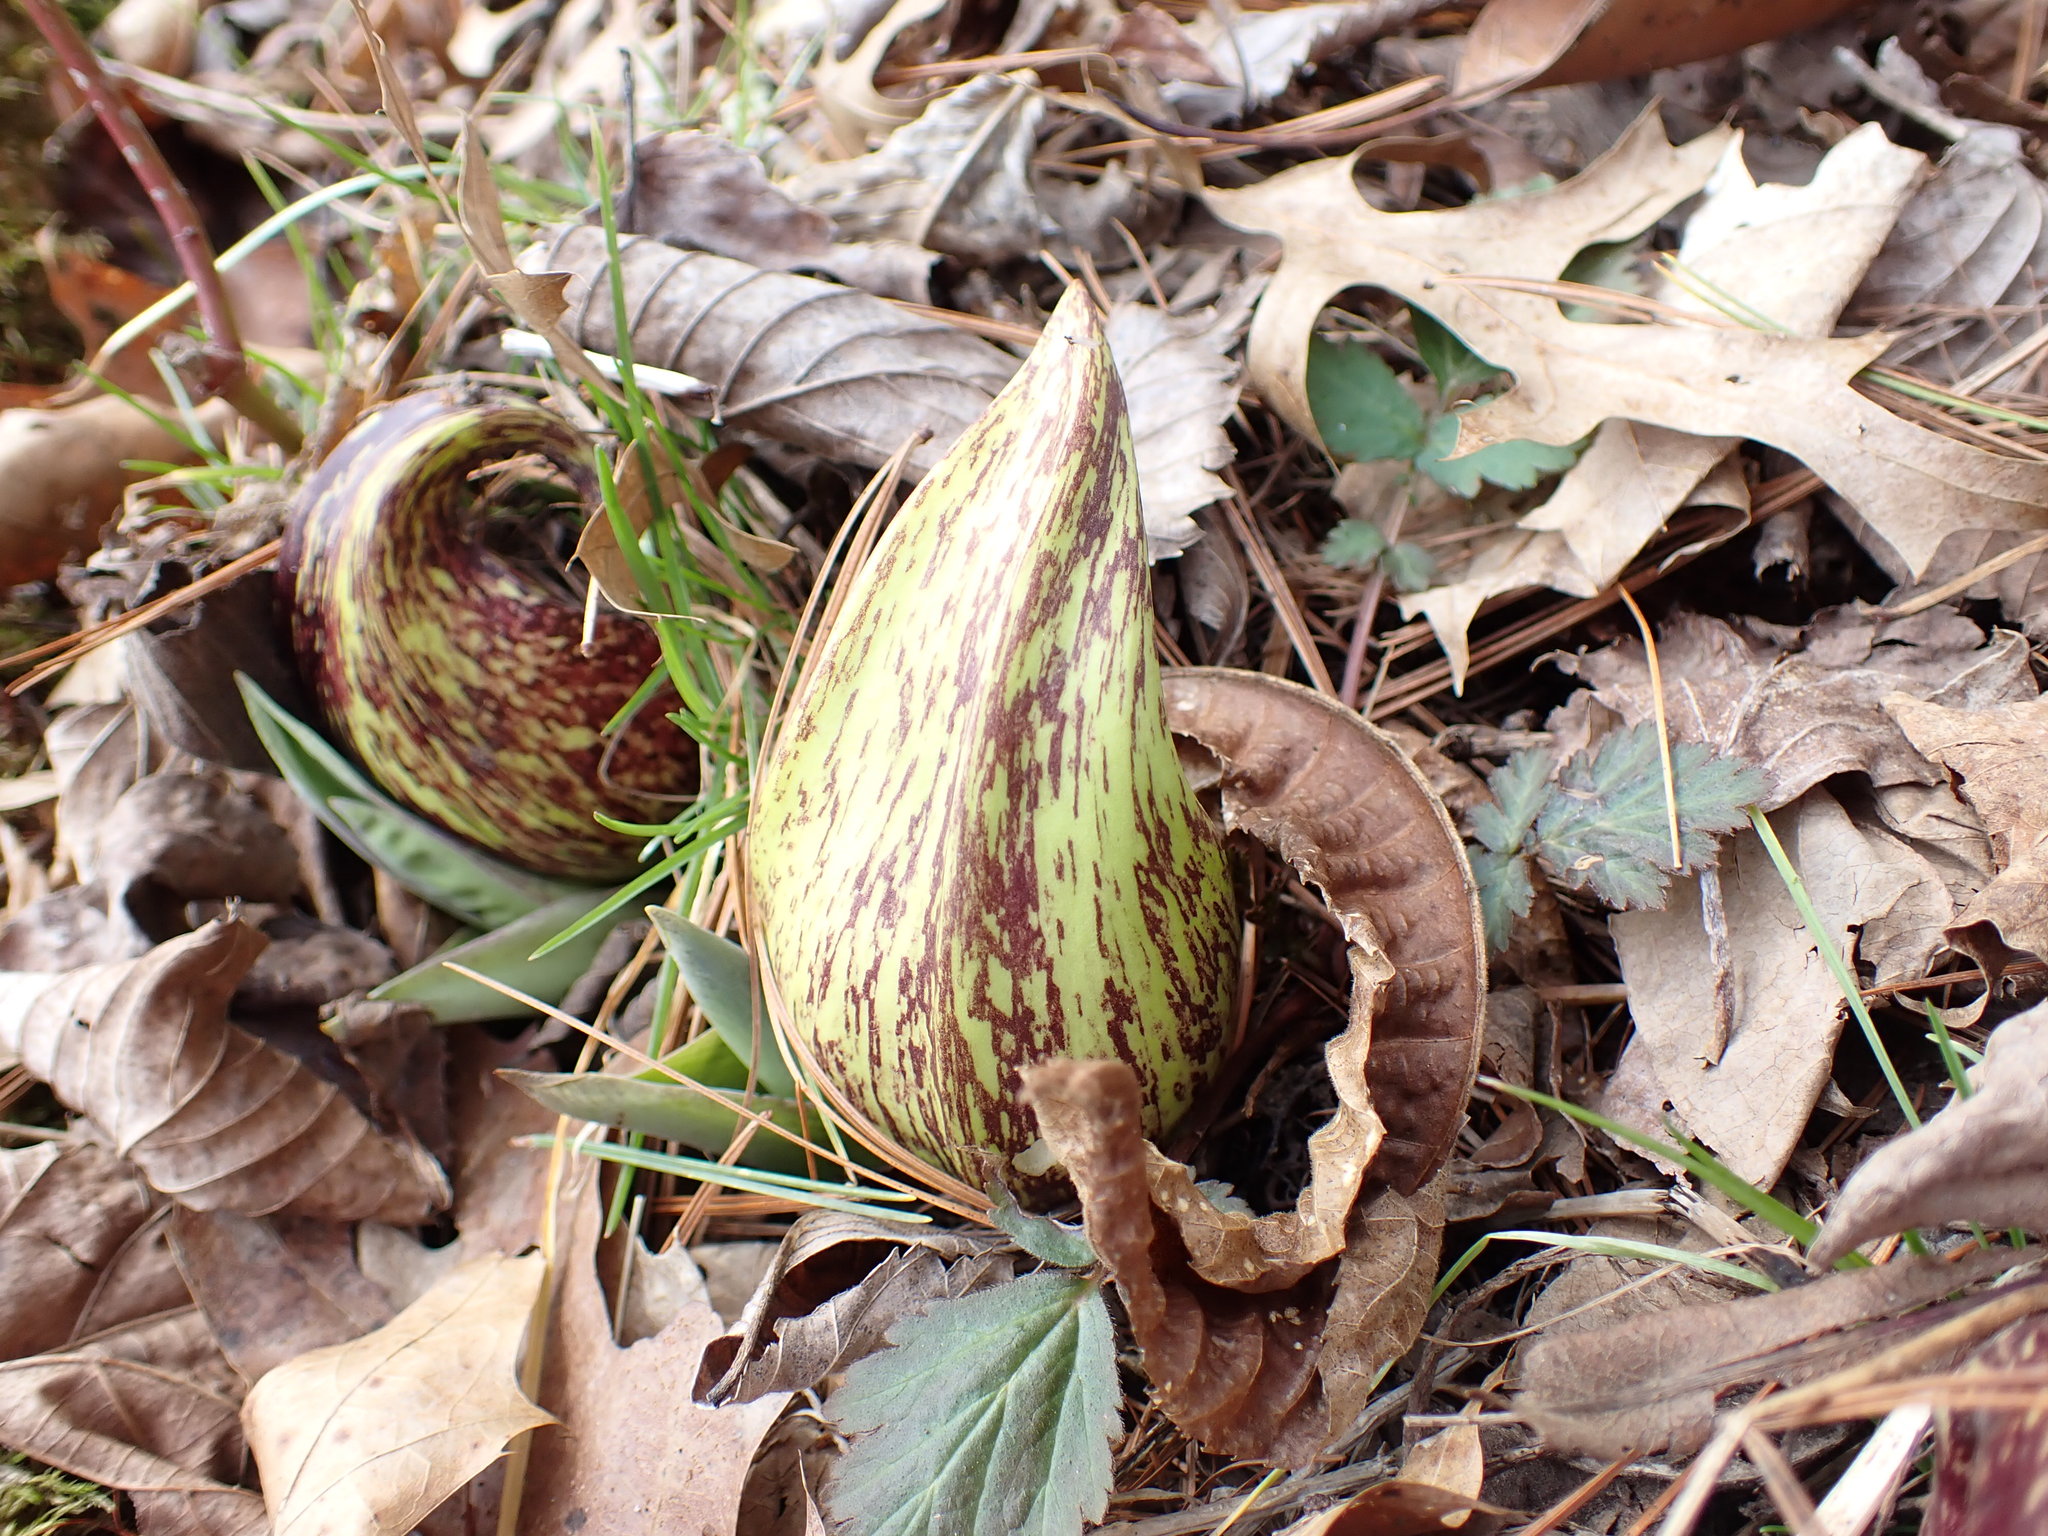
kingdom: Plantae
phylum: Tracheophyta
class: Liliopsida
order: Alismatales
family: Araceae
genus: Symplocarpus
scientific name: Symplocarpus foetidus
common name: Eastern skunk cabbage
